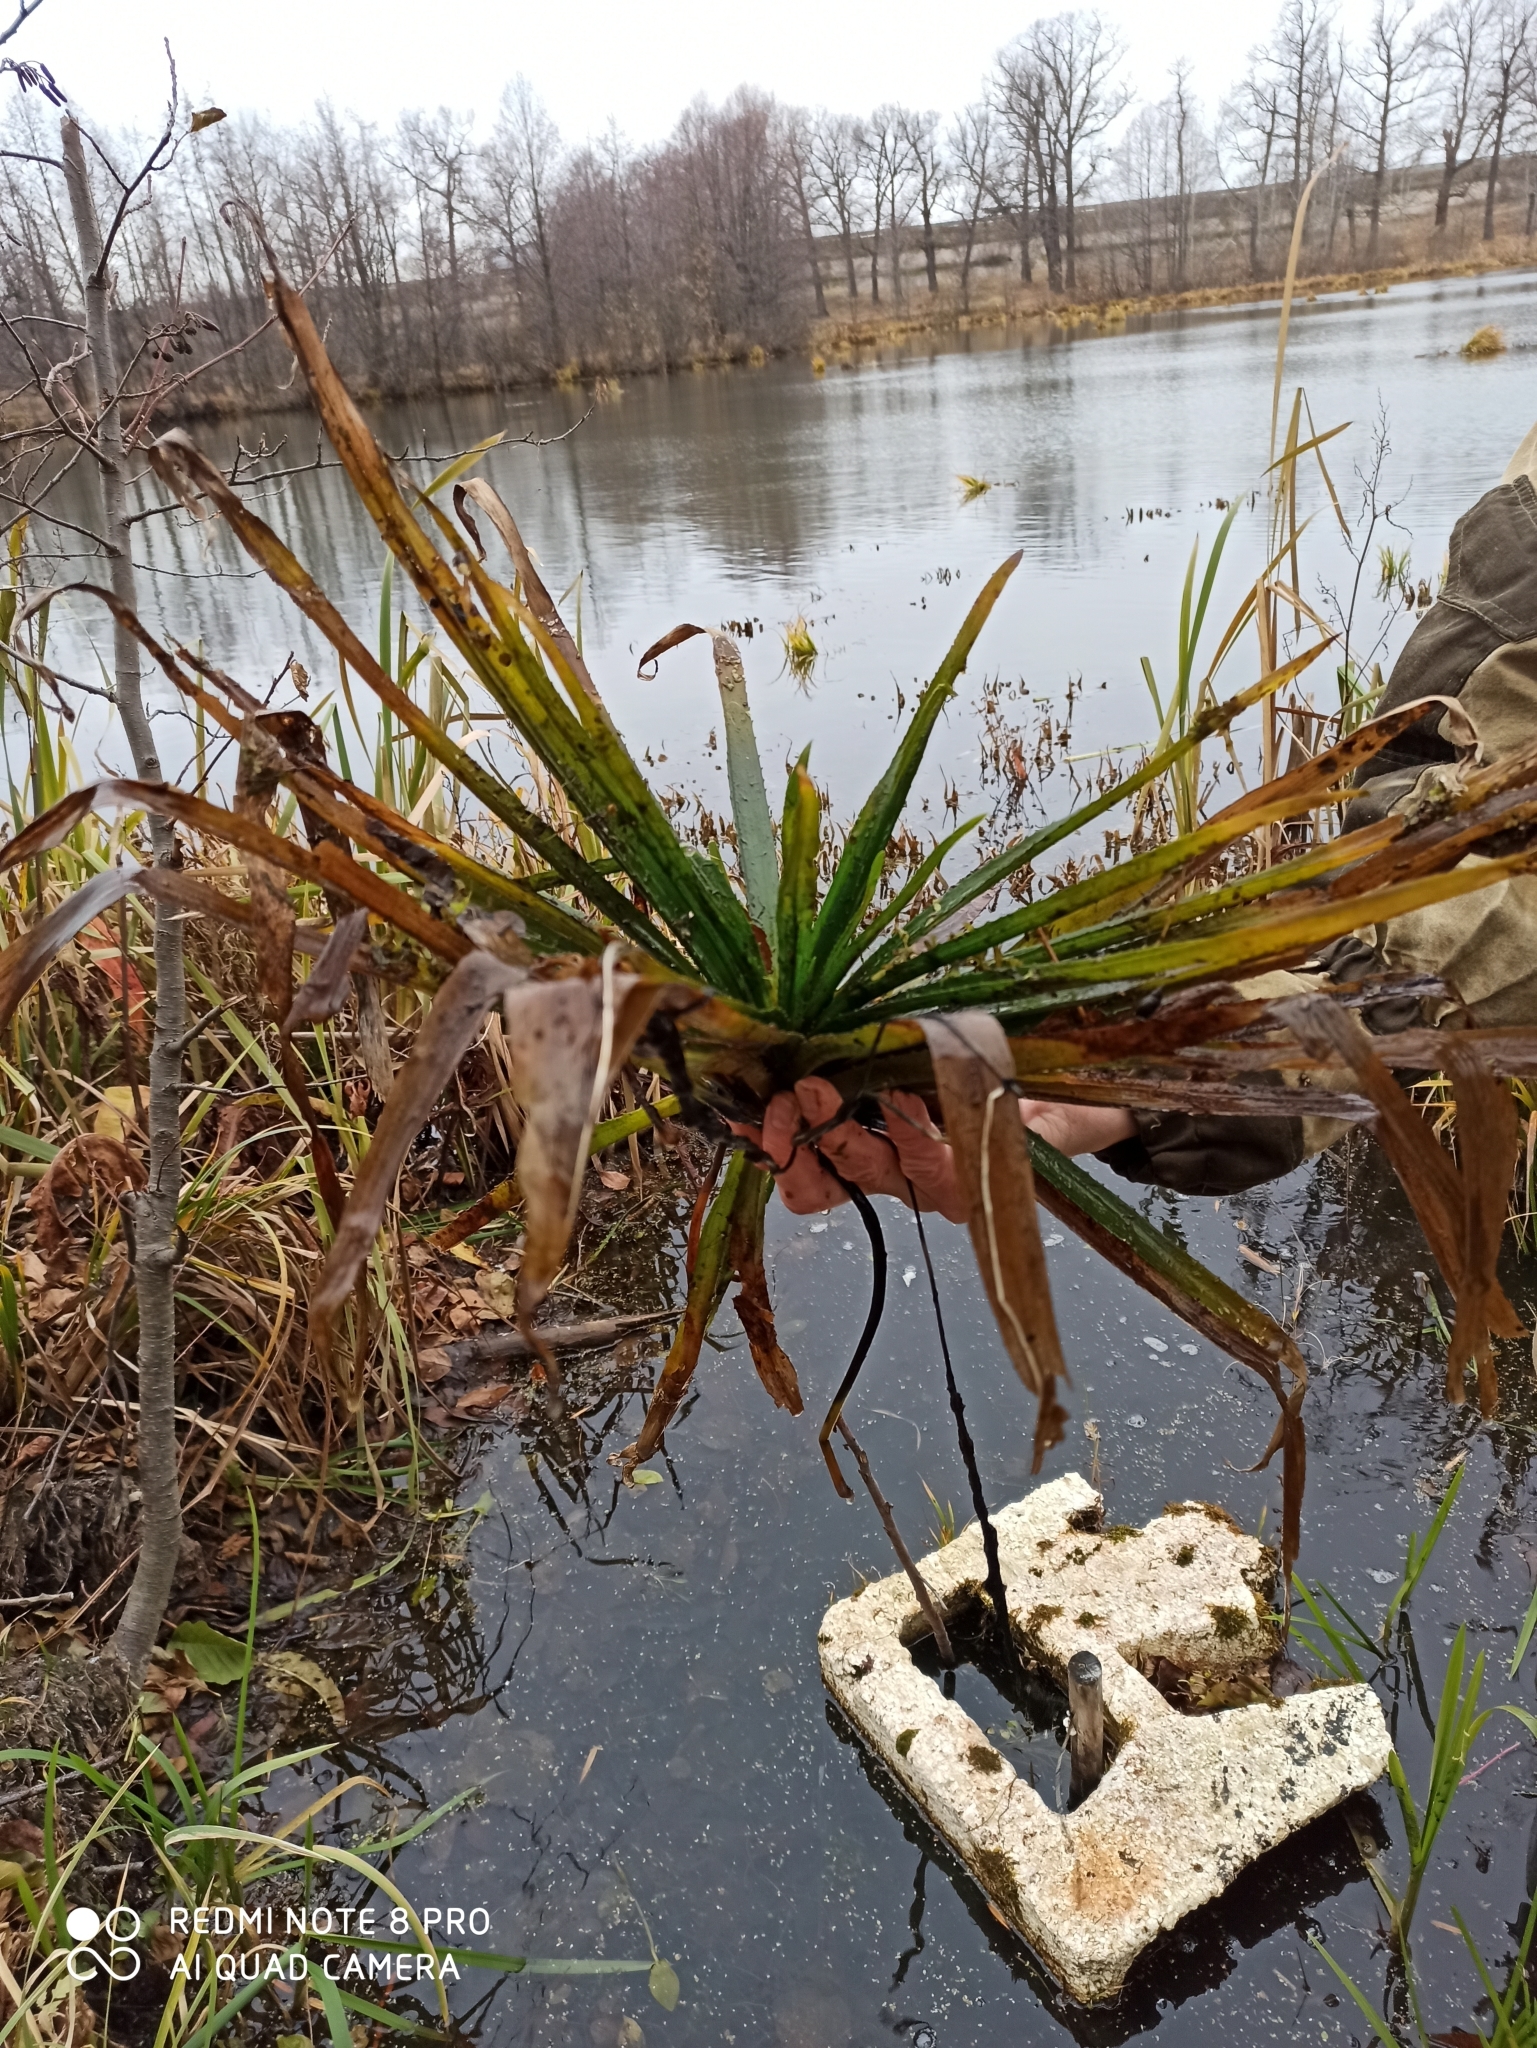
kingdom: Plantae
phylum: Tracheophyta
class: Liliopsida
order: Alismatales
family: Hydrocharitaceae
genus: Stratiotes
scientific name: Stratiotes aloides
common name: Water-soldier
